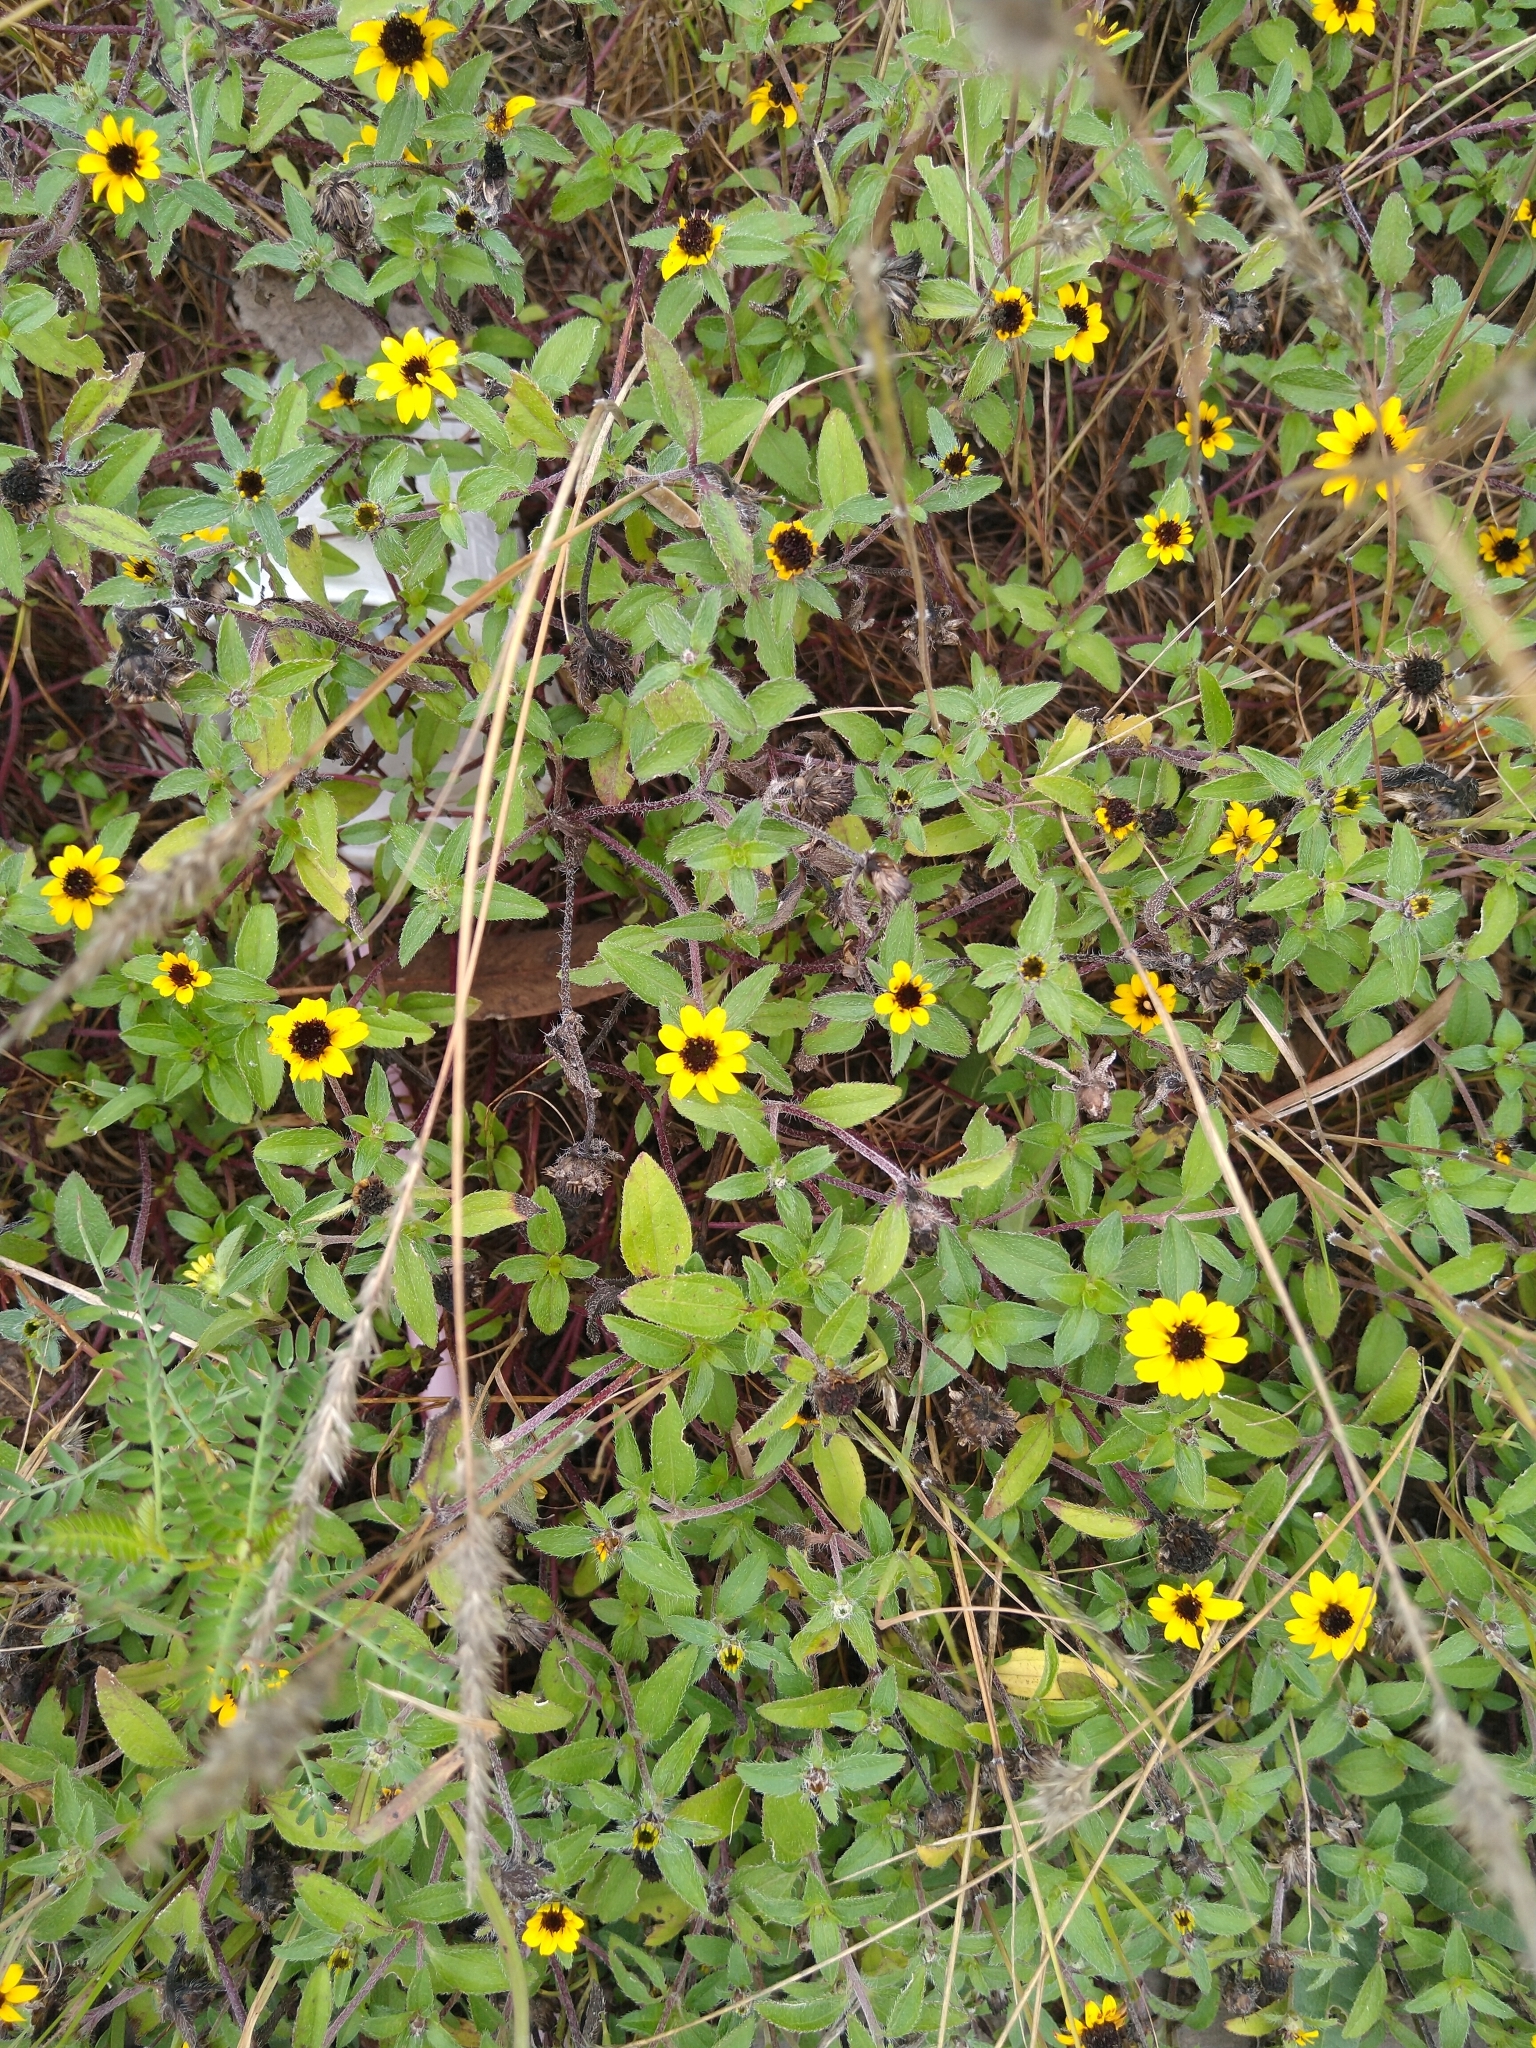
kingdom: Plantae
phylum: Tracheophyta
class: Magnoliopsida
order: Asterales
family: Asteraceae
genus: Sanvitalia
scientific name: Sanvitalia procumbens
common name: Mexican creeping zinnia
